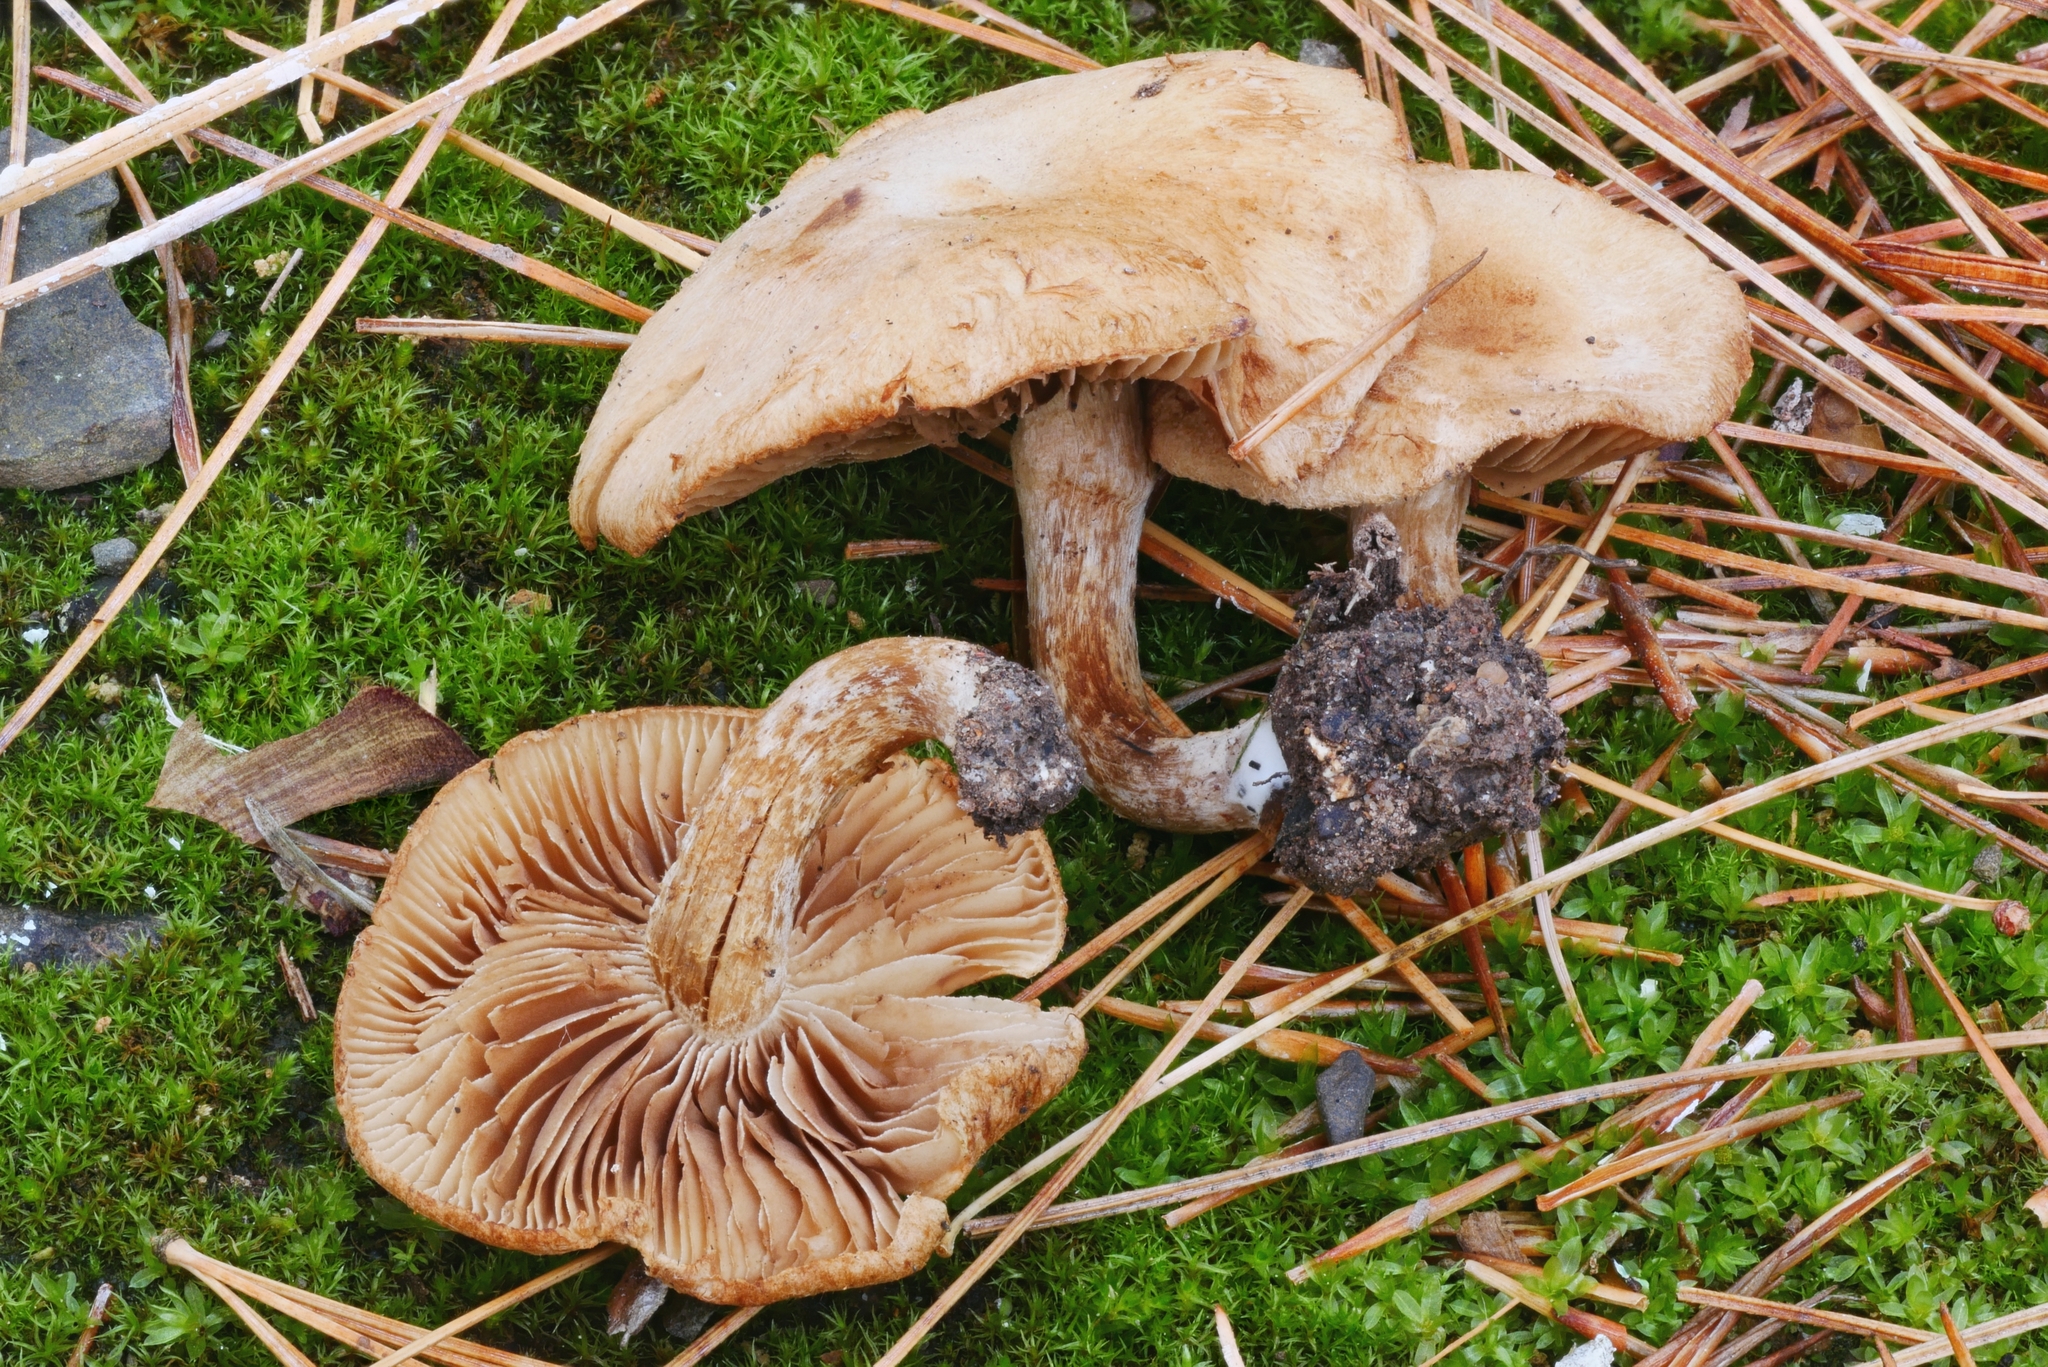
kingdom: Fungi
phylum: Basidiomycota
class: Agaricomycetes
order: Agaricales
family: Inocybaceae
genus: Mallocybe
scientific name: Mallocybe
